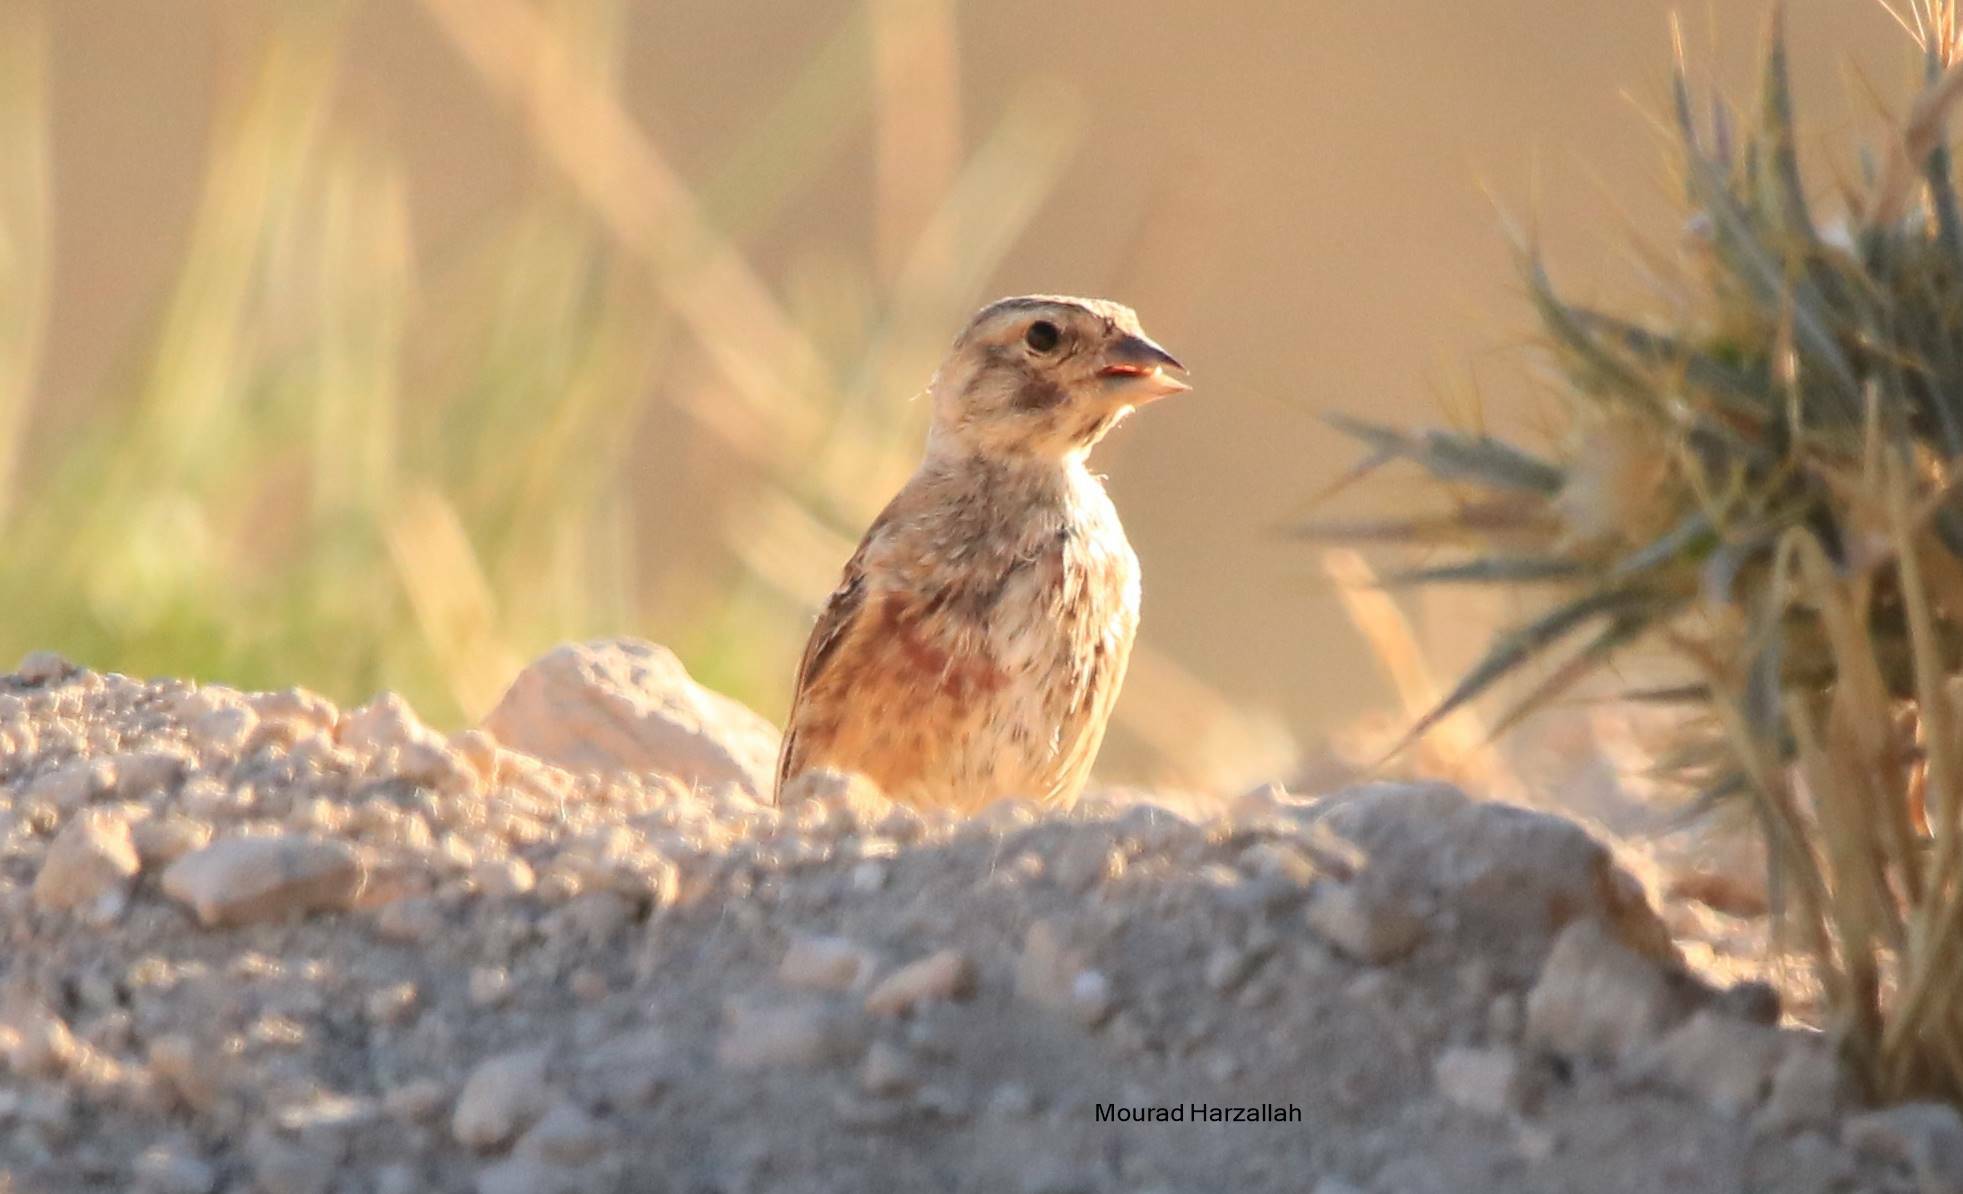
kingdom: Animalia
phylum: Chordata
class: Aves
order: Passeriformes
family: Fringillidae
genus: Linaria
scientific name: Linaria cannabina
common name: Common linnet
